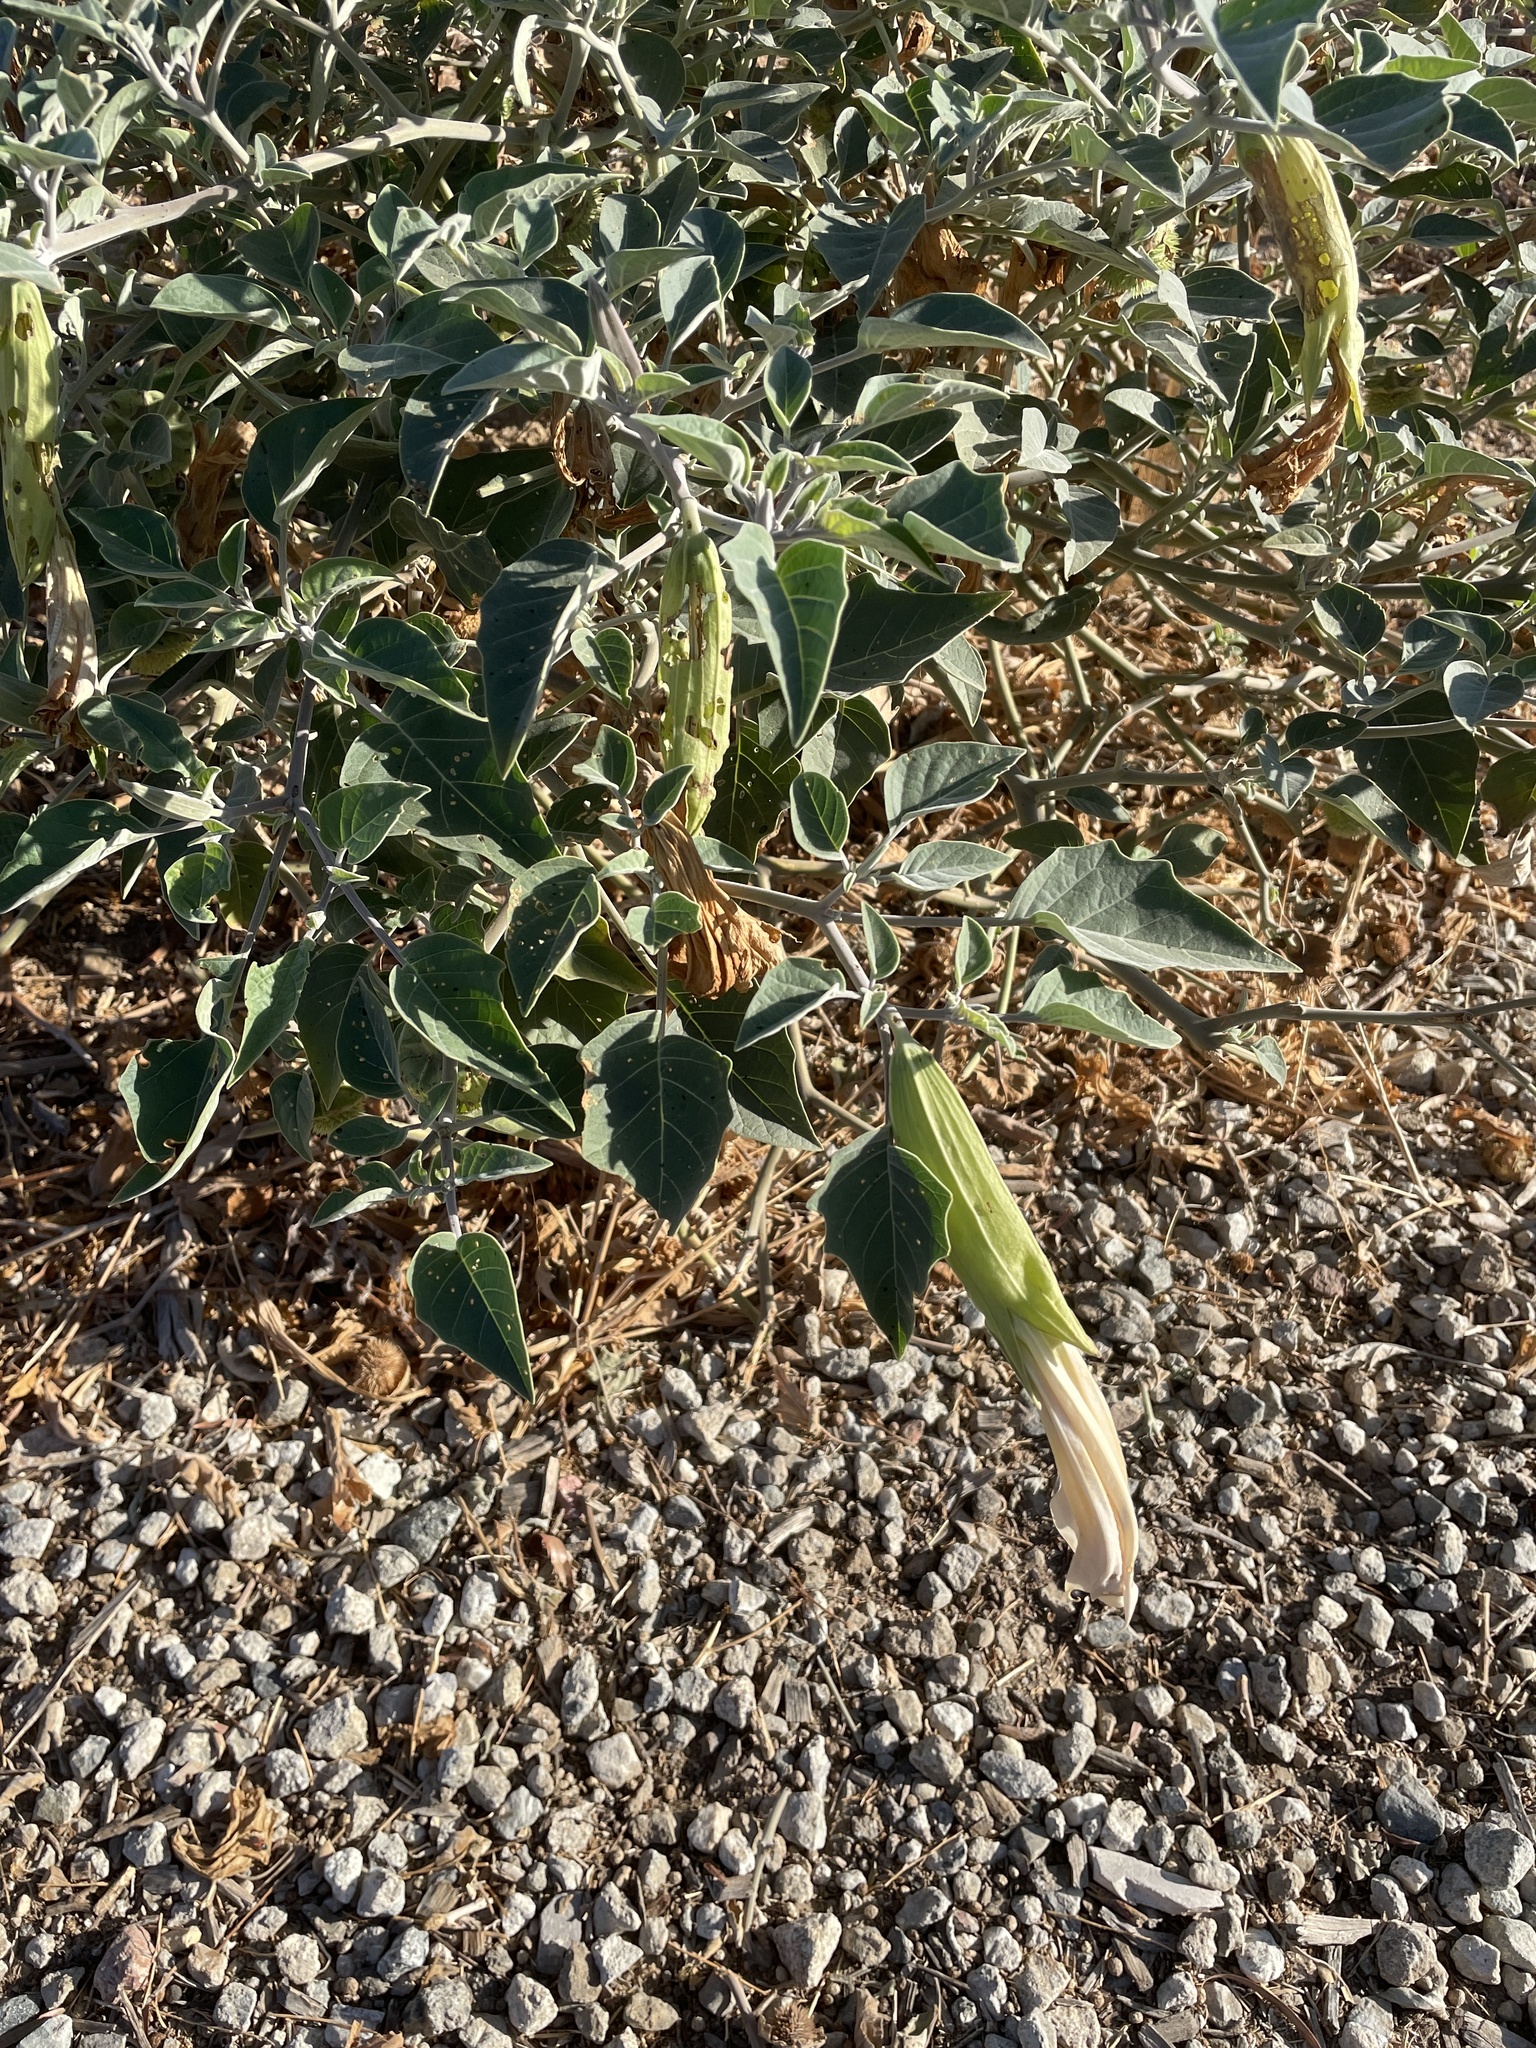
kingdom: Plantae
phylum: Tracheophyta
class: Magnoliopsida
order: Solanales
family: Solanaceae
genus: Datura
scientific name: Datura wrightii
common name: Sacred thorn-apple
